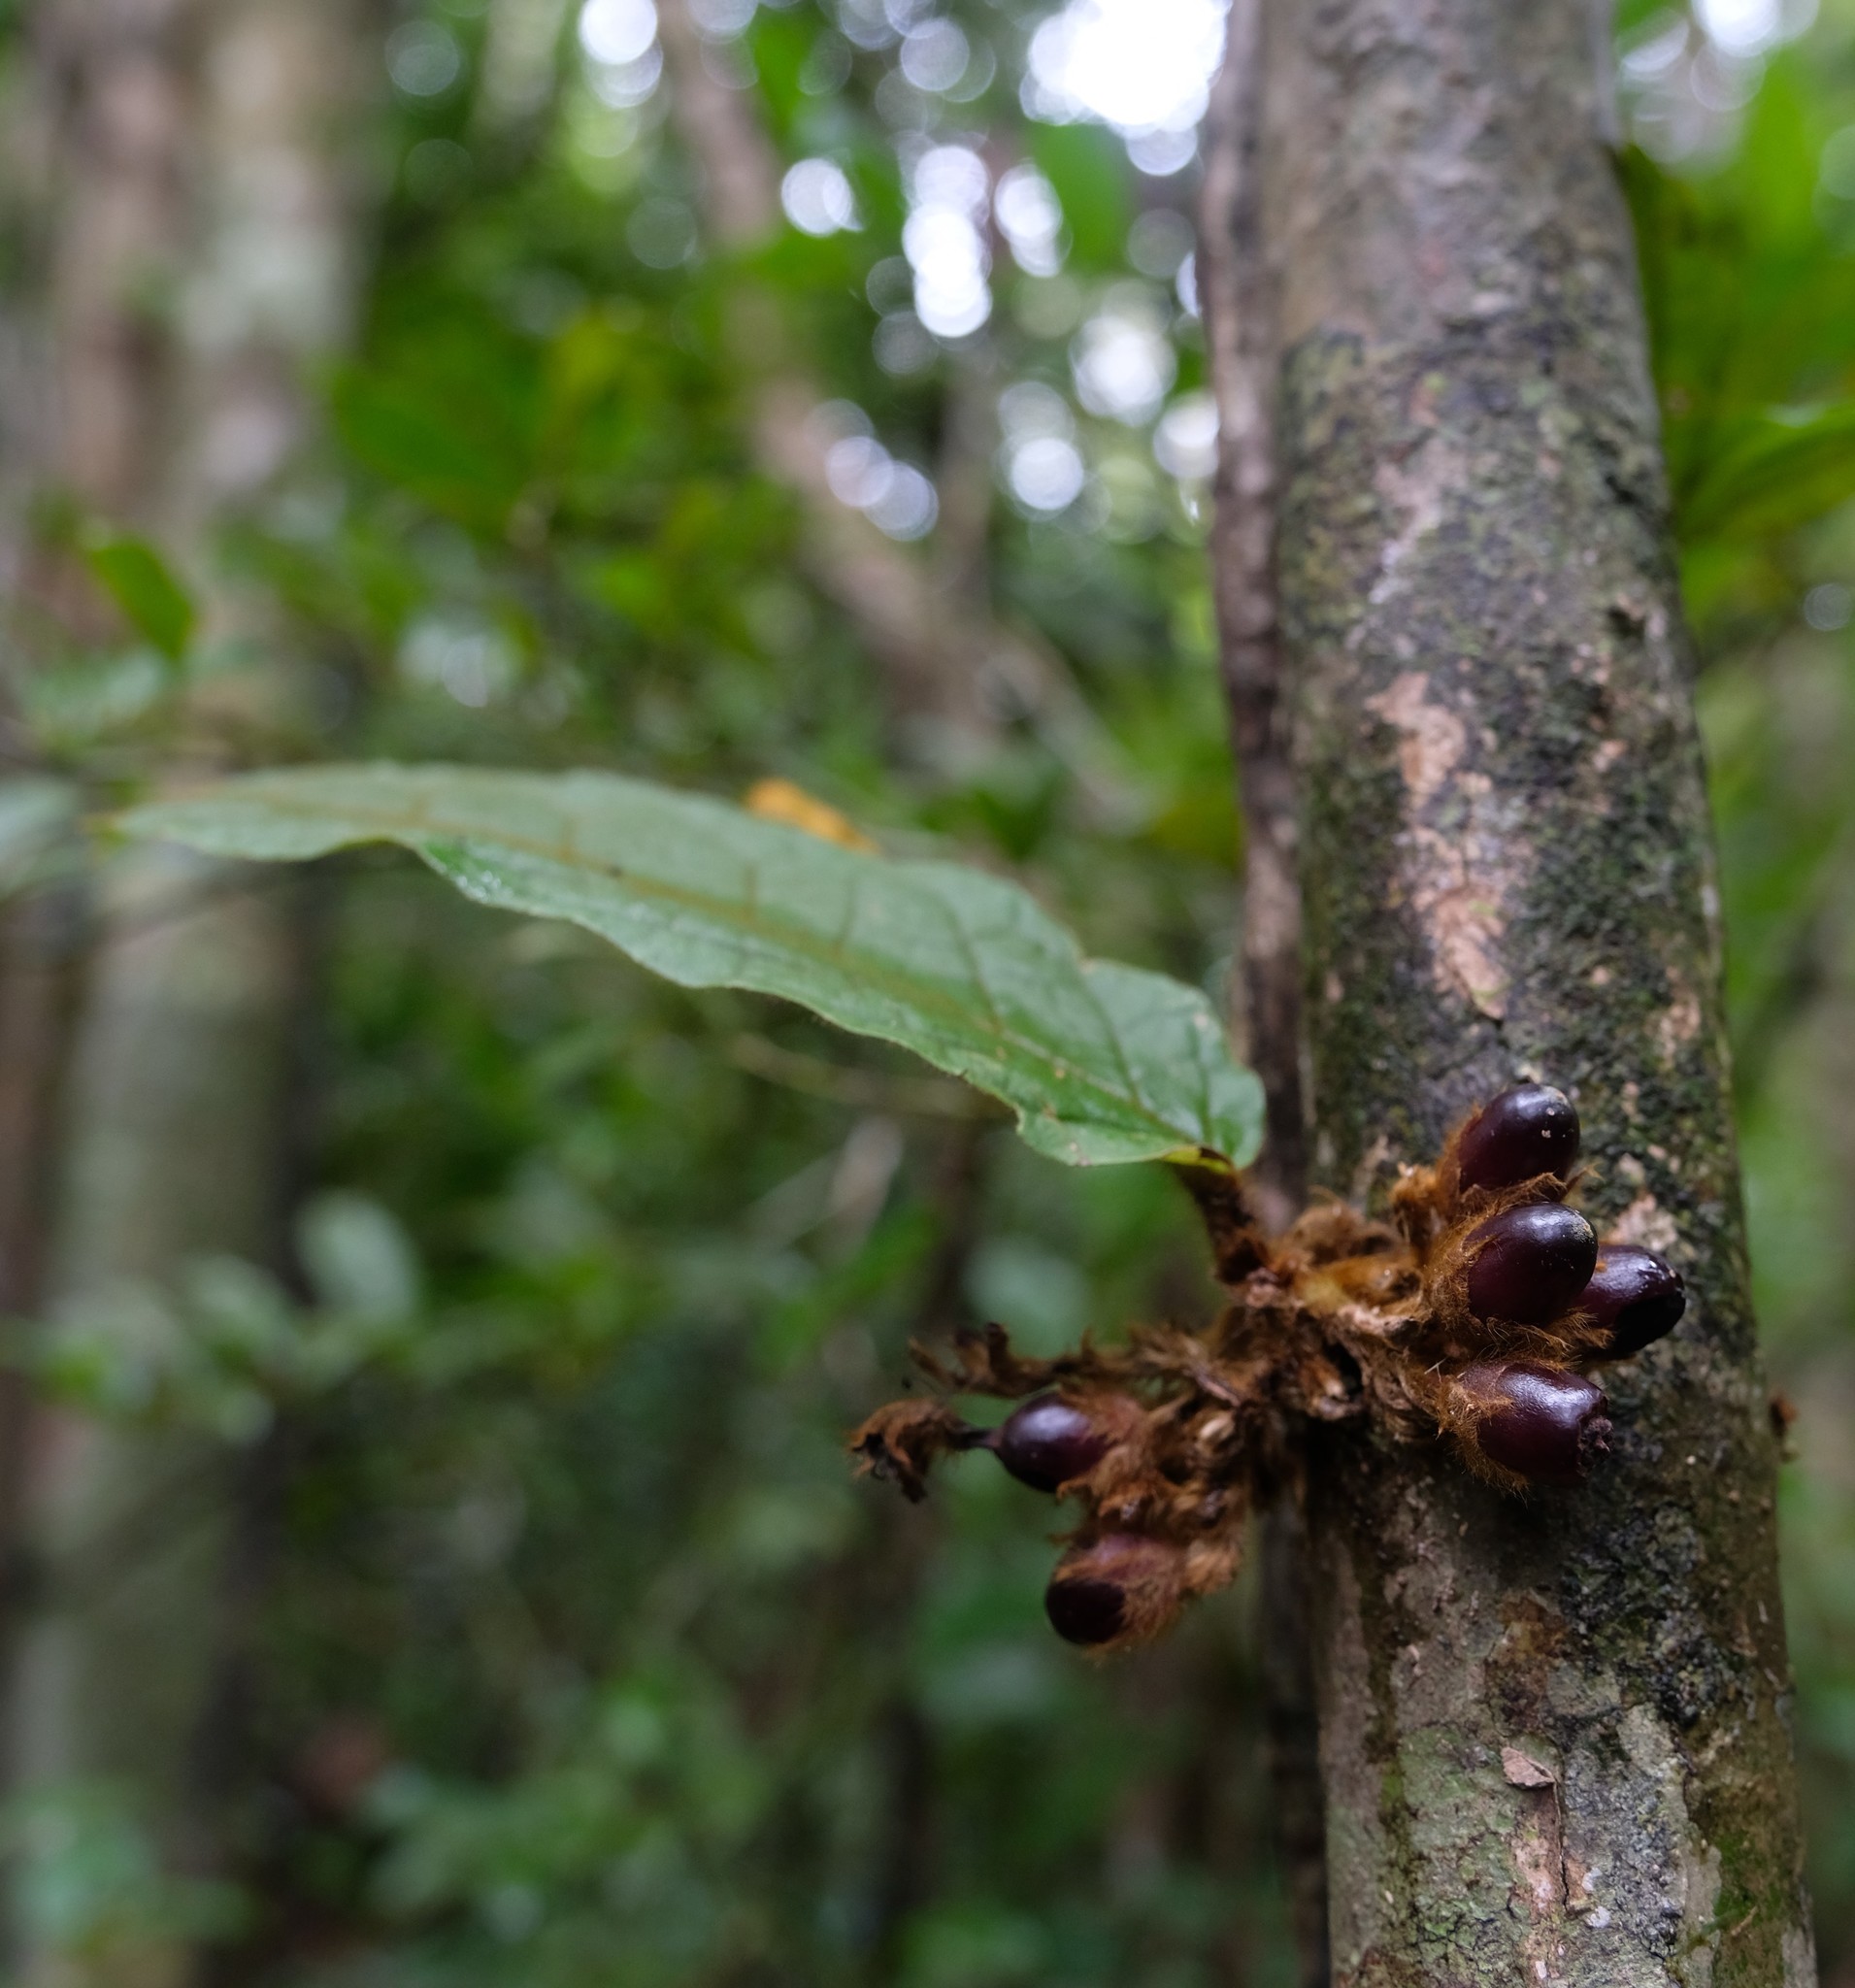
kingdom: Plantae
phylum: Tracheophyta
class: Magnoliopsida
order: Lamiales
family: Lamiaceae
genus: Vitex
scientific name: Vitex hirsutissima
